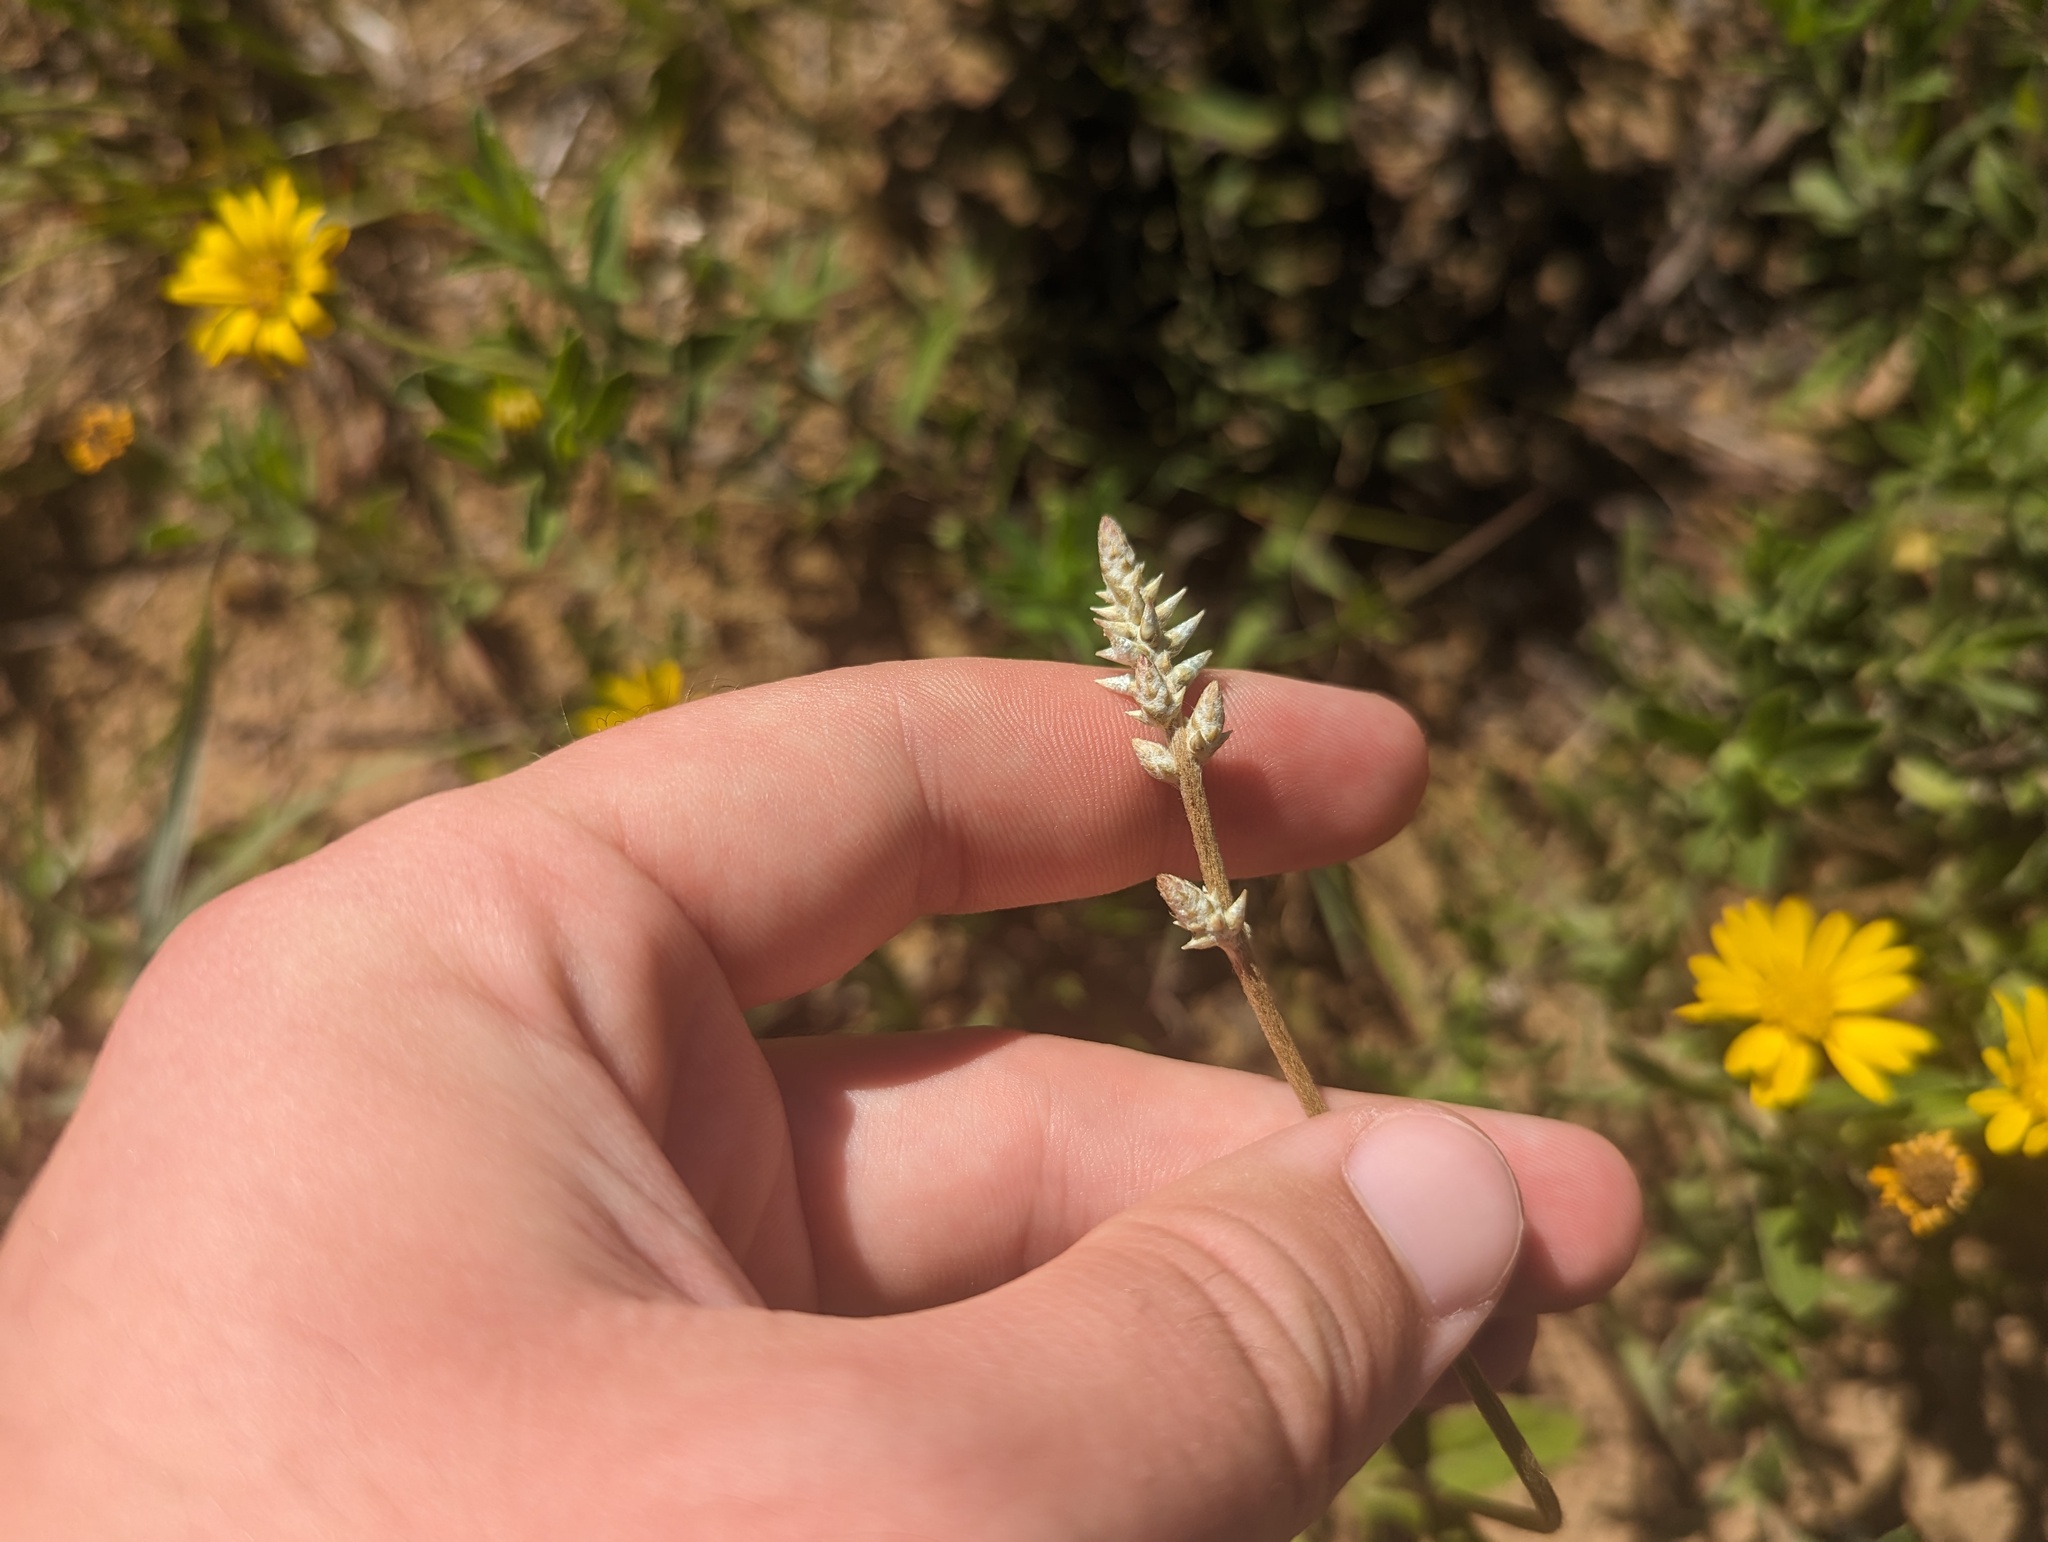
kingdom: Plantae
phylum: Tracheophyta
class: Magnoliopsida
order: Caryophyllales
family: Amaranthaceae
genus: Froelichia
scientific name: Froelichia floridana
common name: Florida snake-cotton
